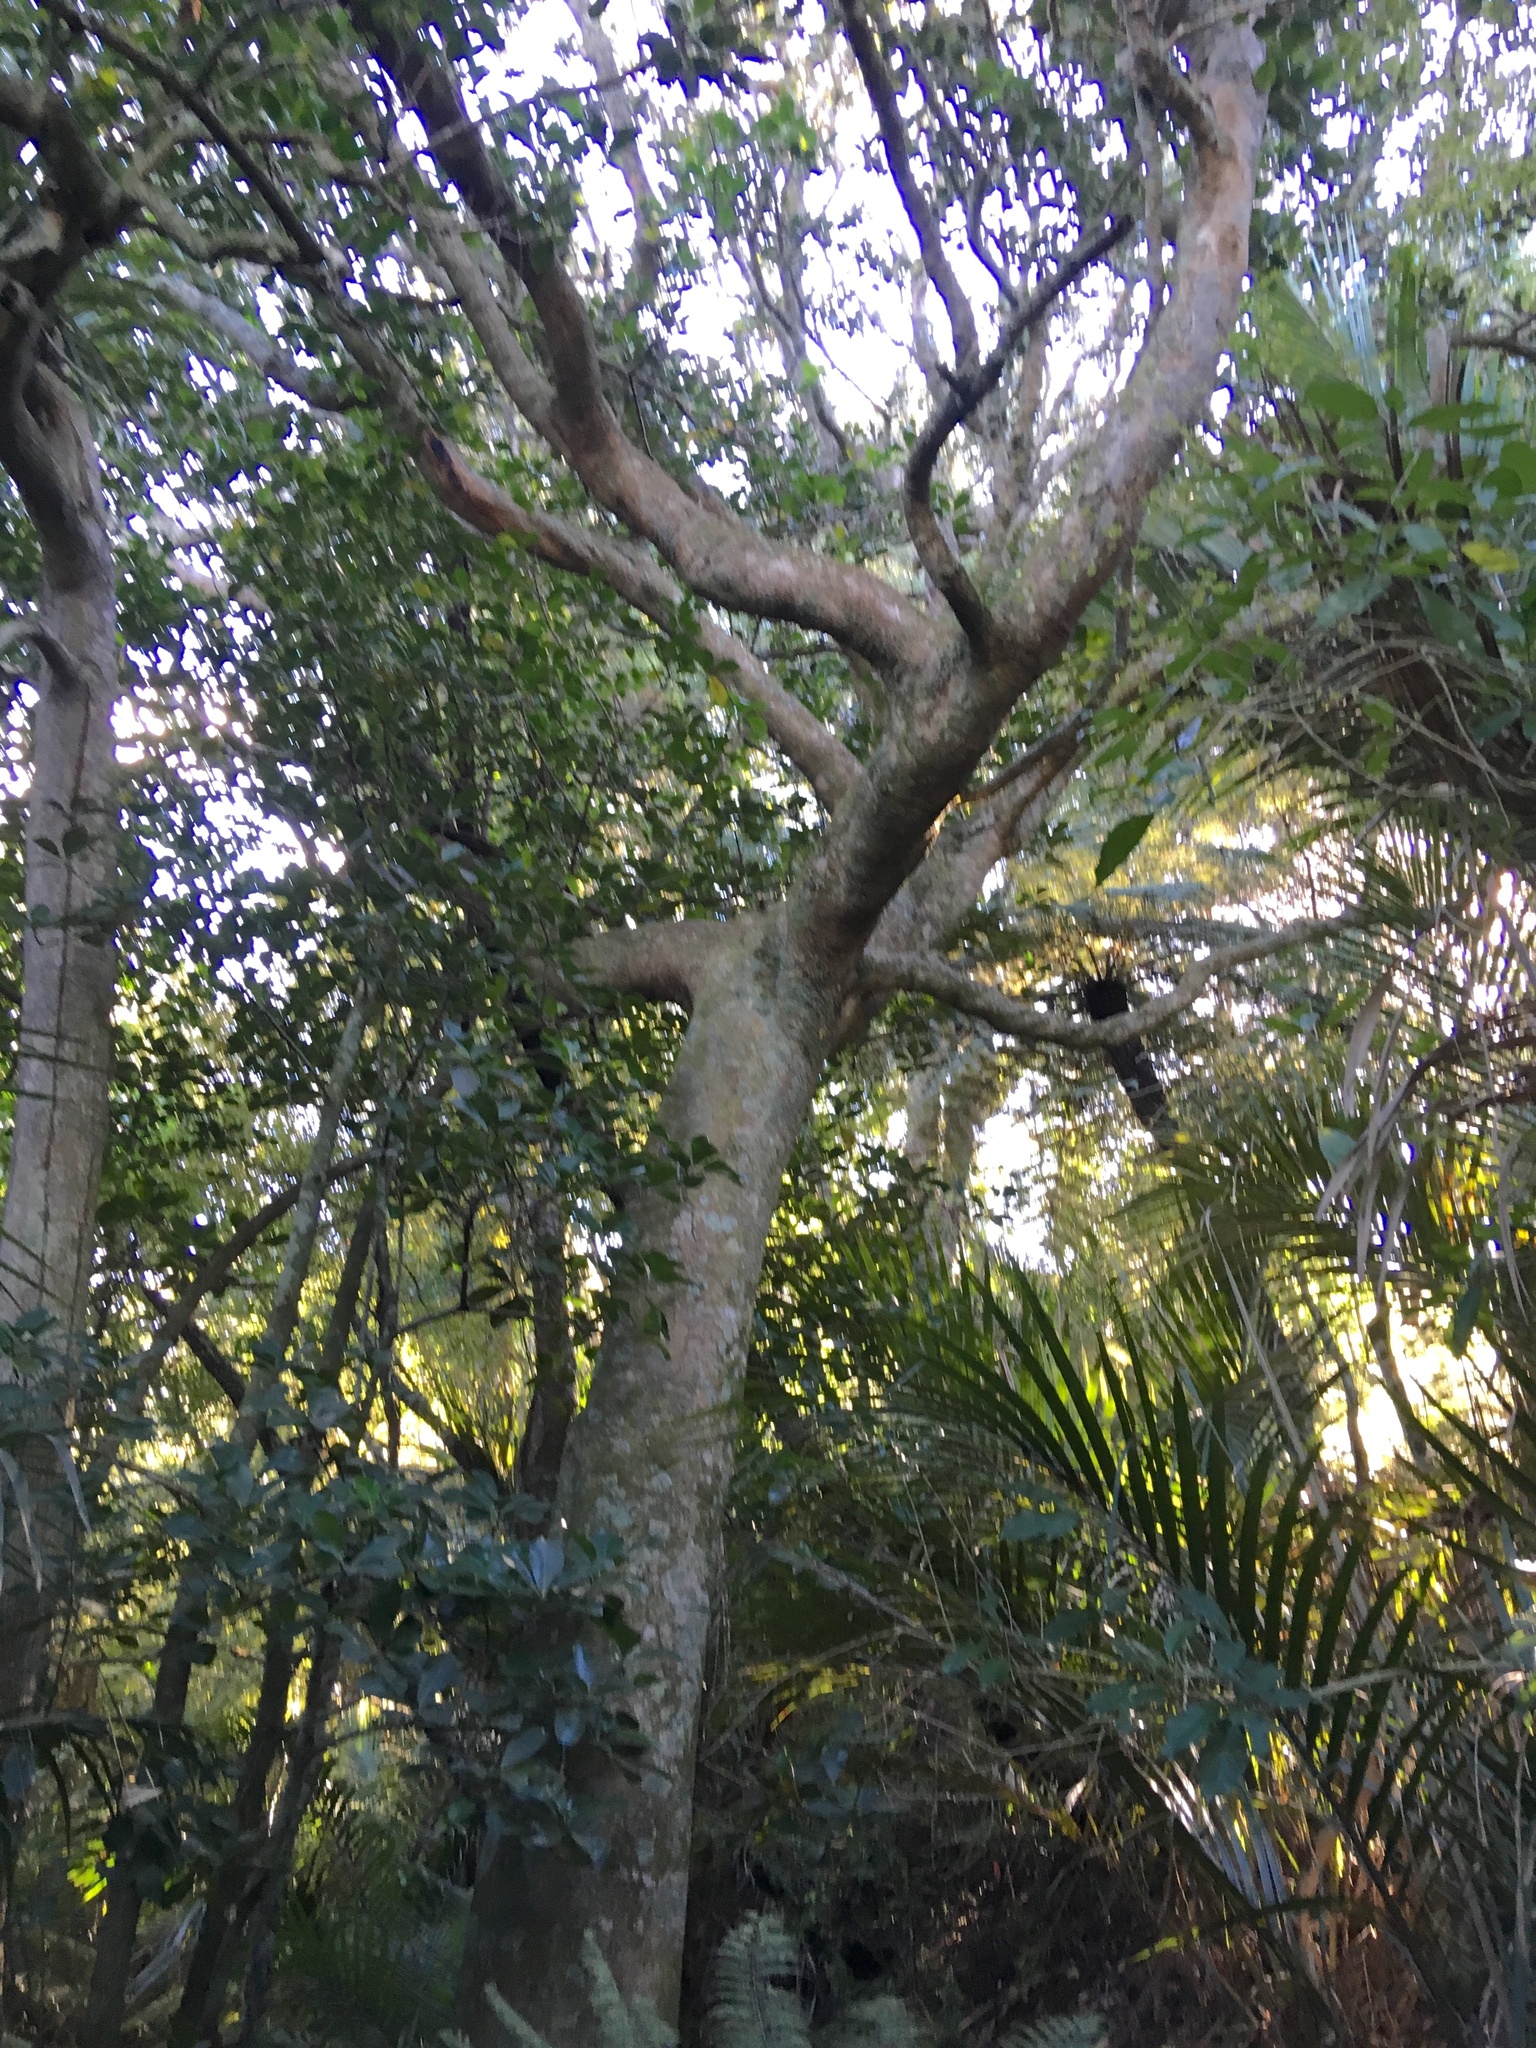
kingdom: Plantae
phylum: Tracheophyta
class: Liliopsida
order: Arecales
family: Arecaceae
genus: Rhopalostylis
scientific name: Rhopalostylis sapida
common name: Feather-duster palm
